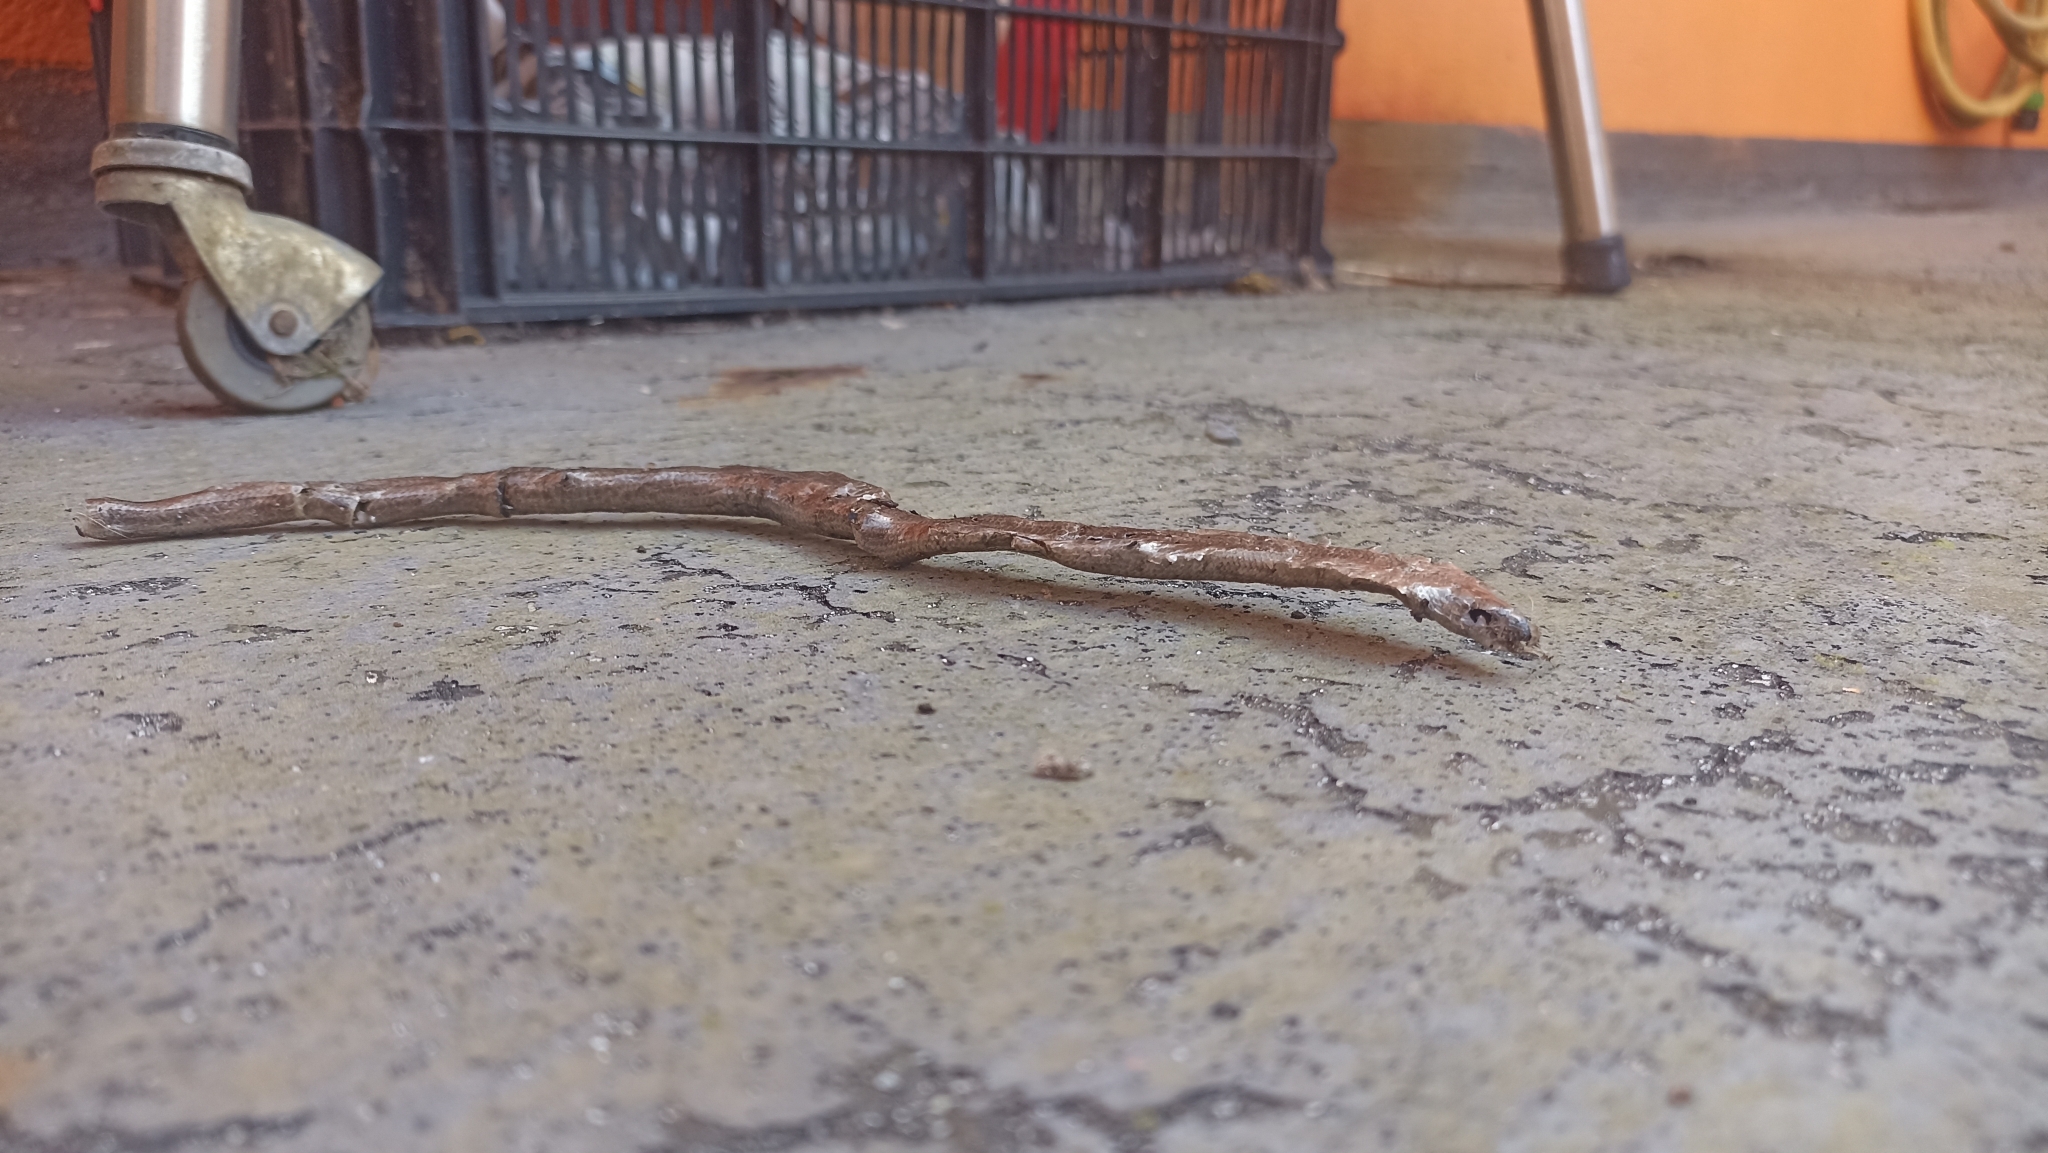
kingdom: Animalia
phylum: Chordata
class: Squamata
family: Anguidae
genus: Anguis
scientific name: Anguis fragilis
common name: Slow worm
